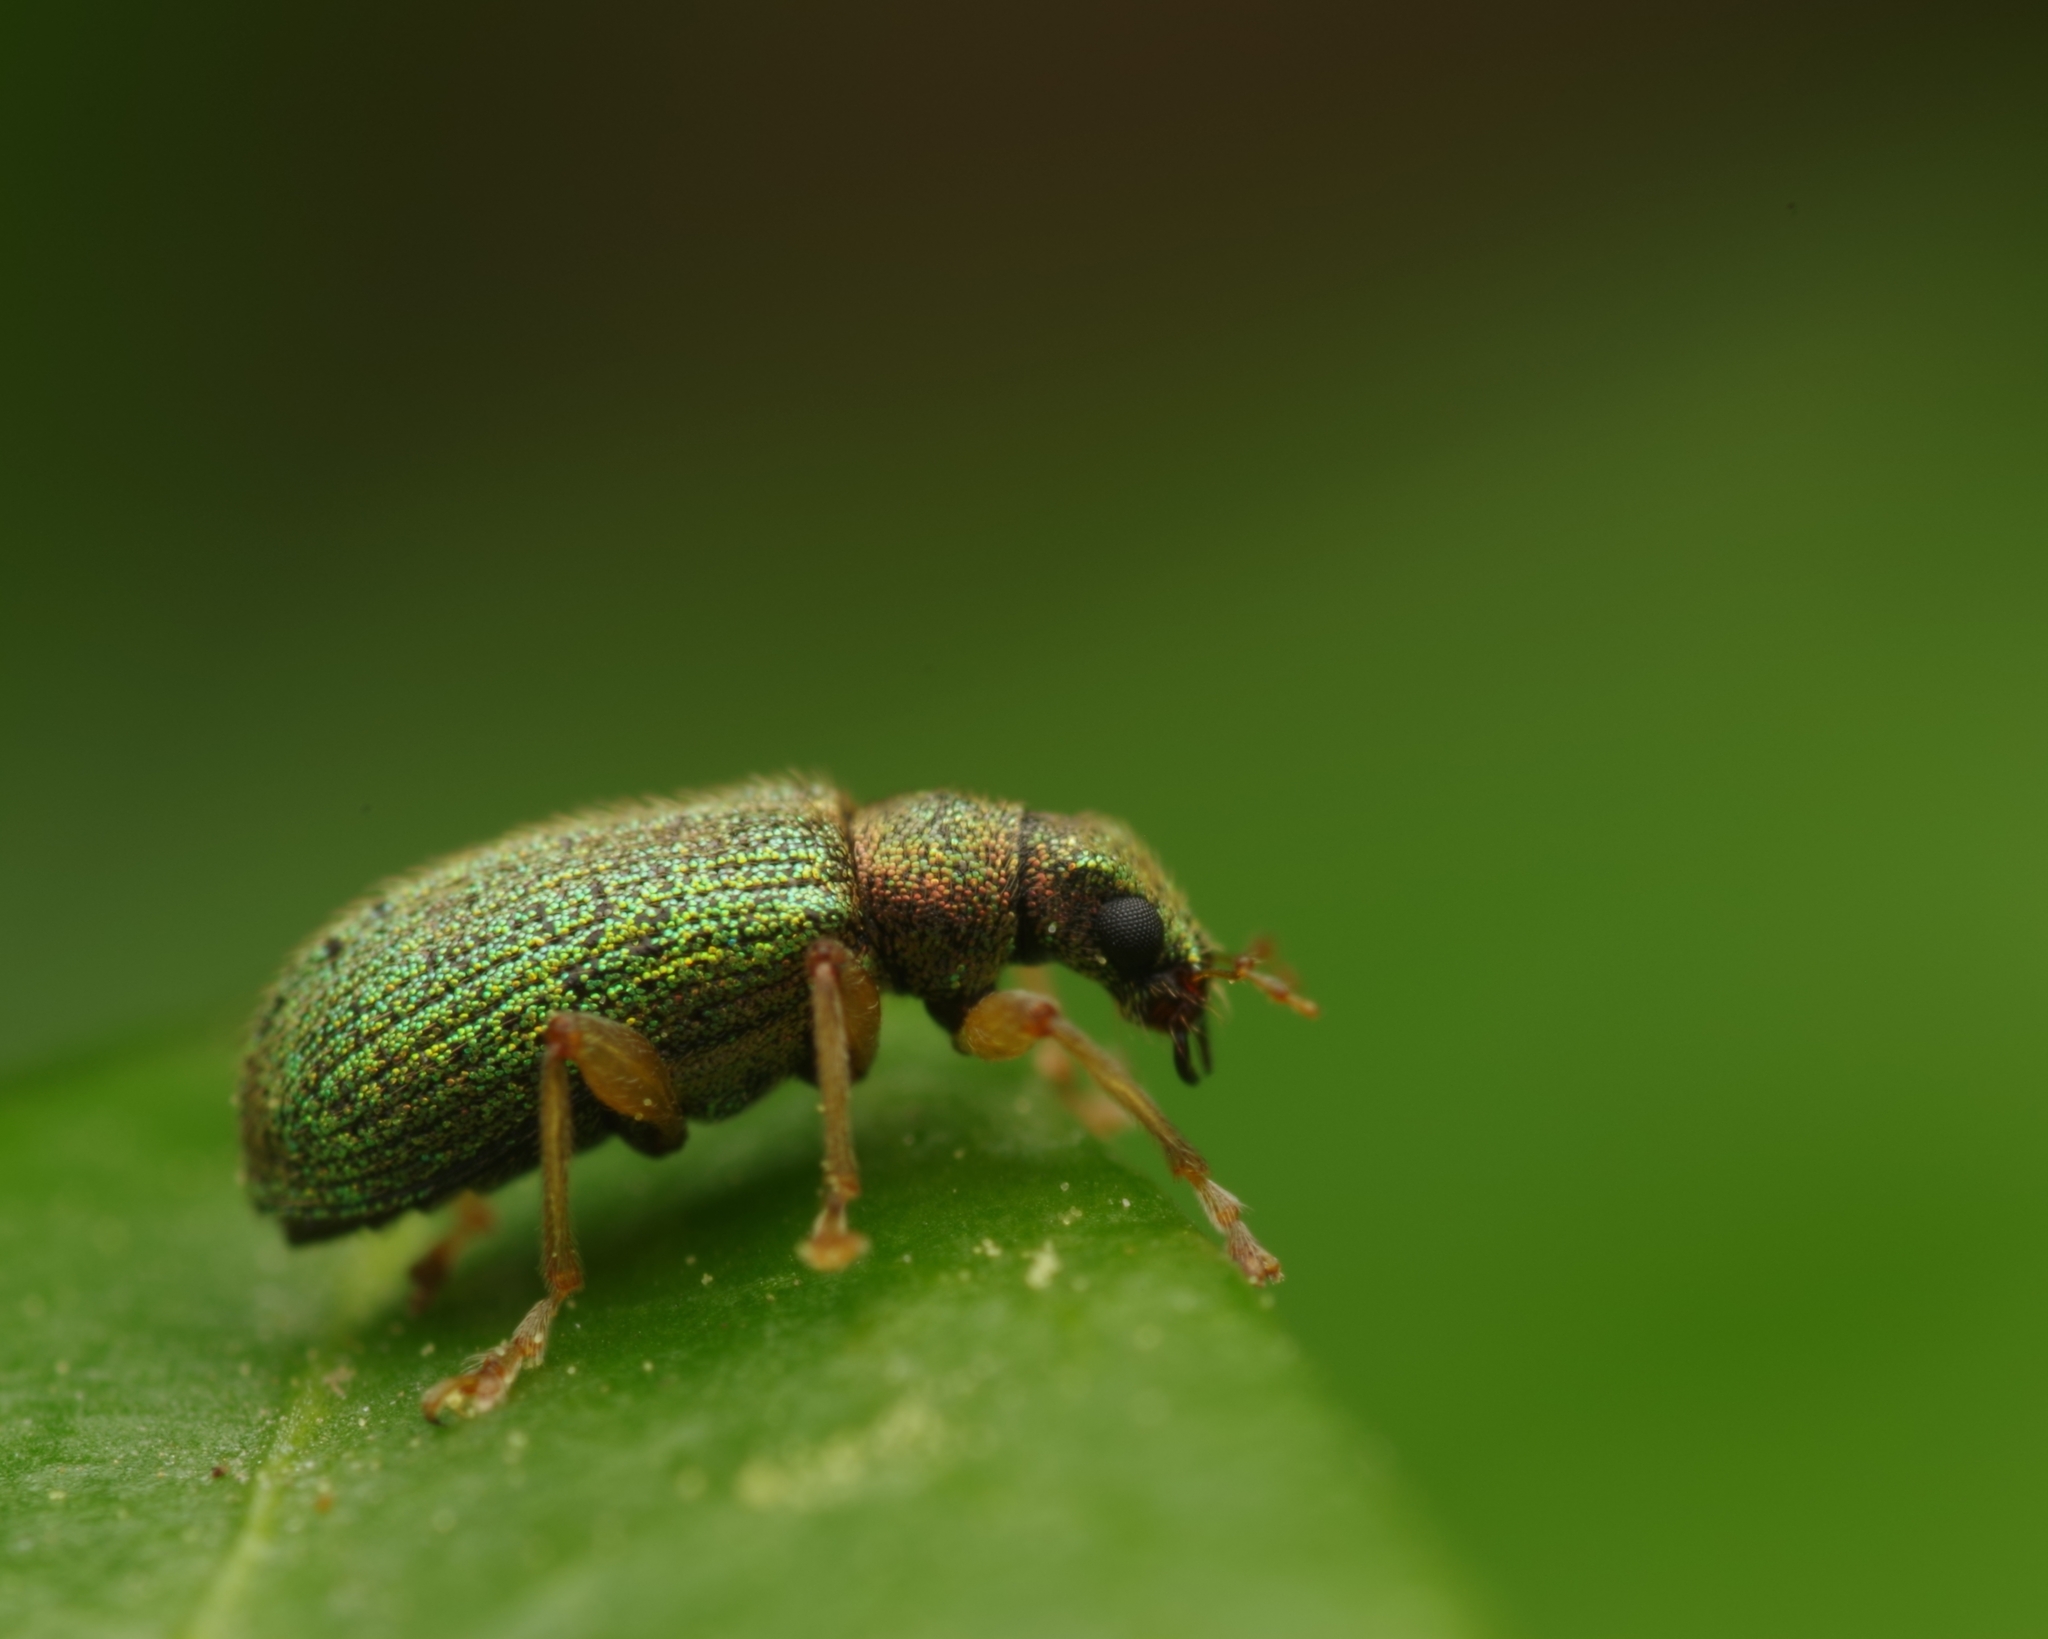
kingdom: Animalia
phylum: Arthropoda
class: Insecta
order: Coleoptera
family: Curculionidae
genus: Polydrusus
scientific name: Polydrusus pterygomalis
